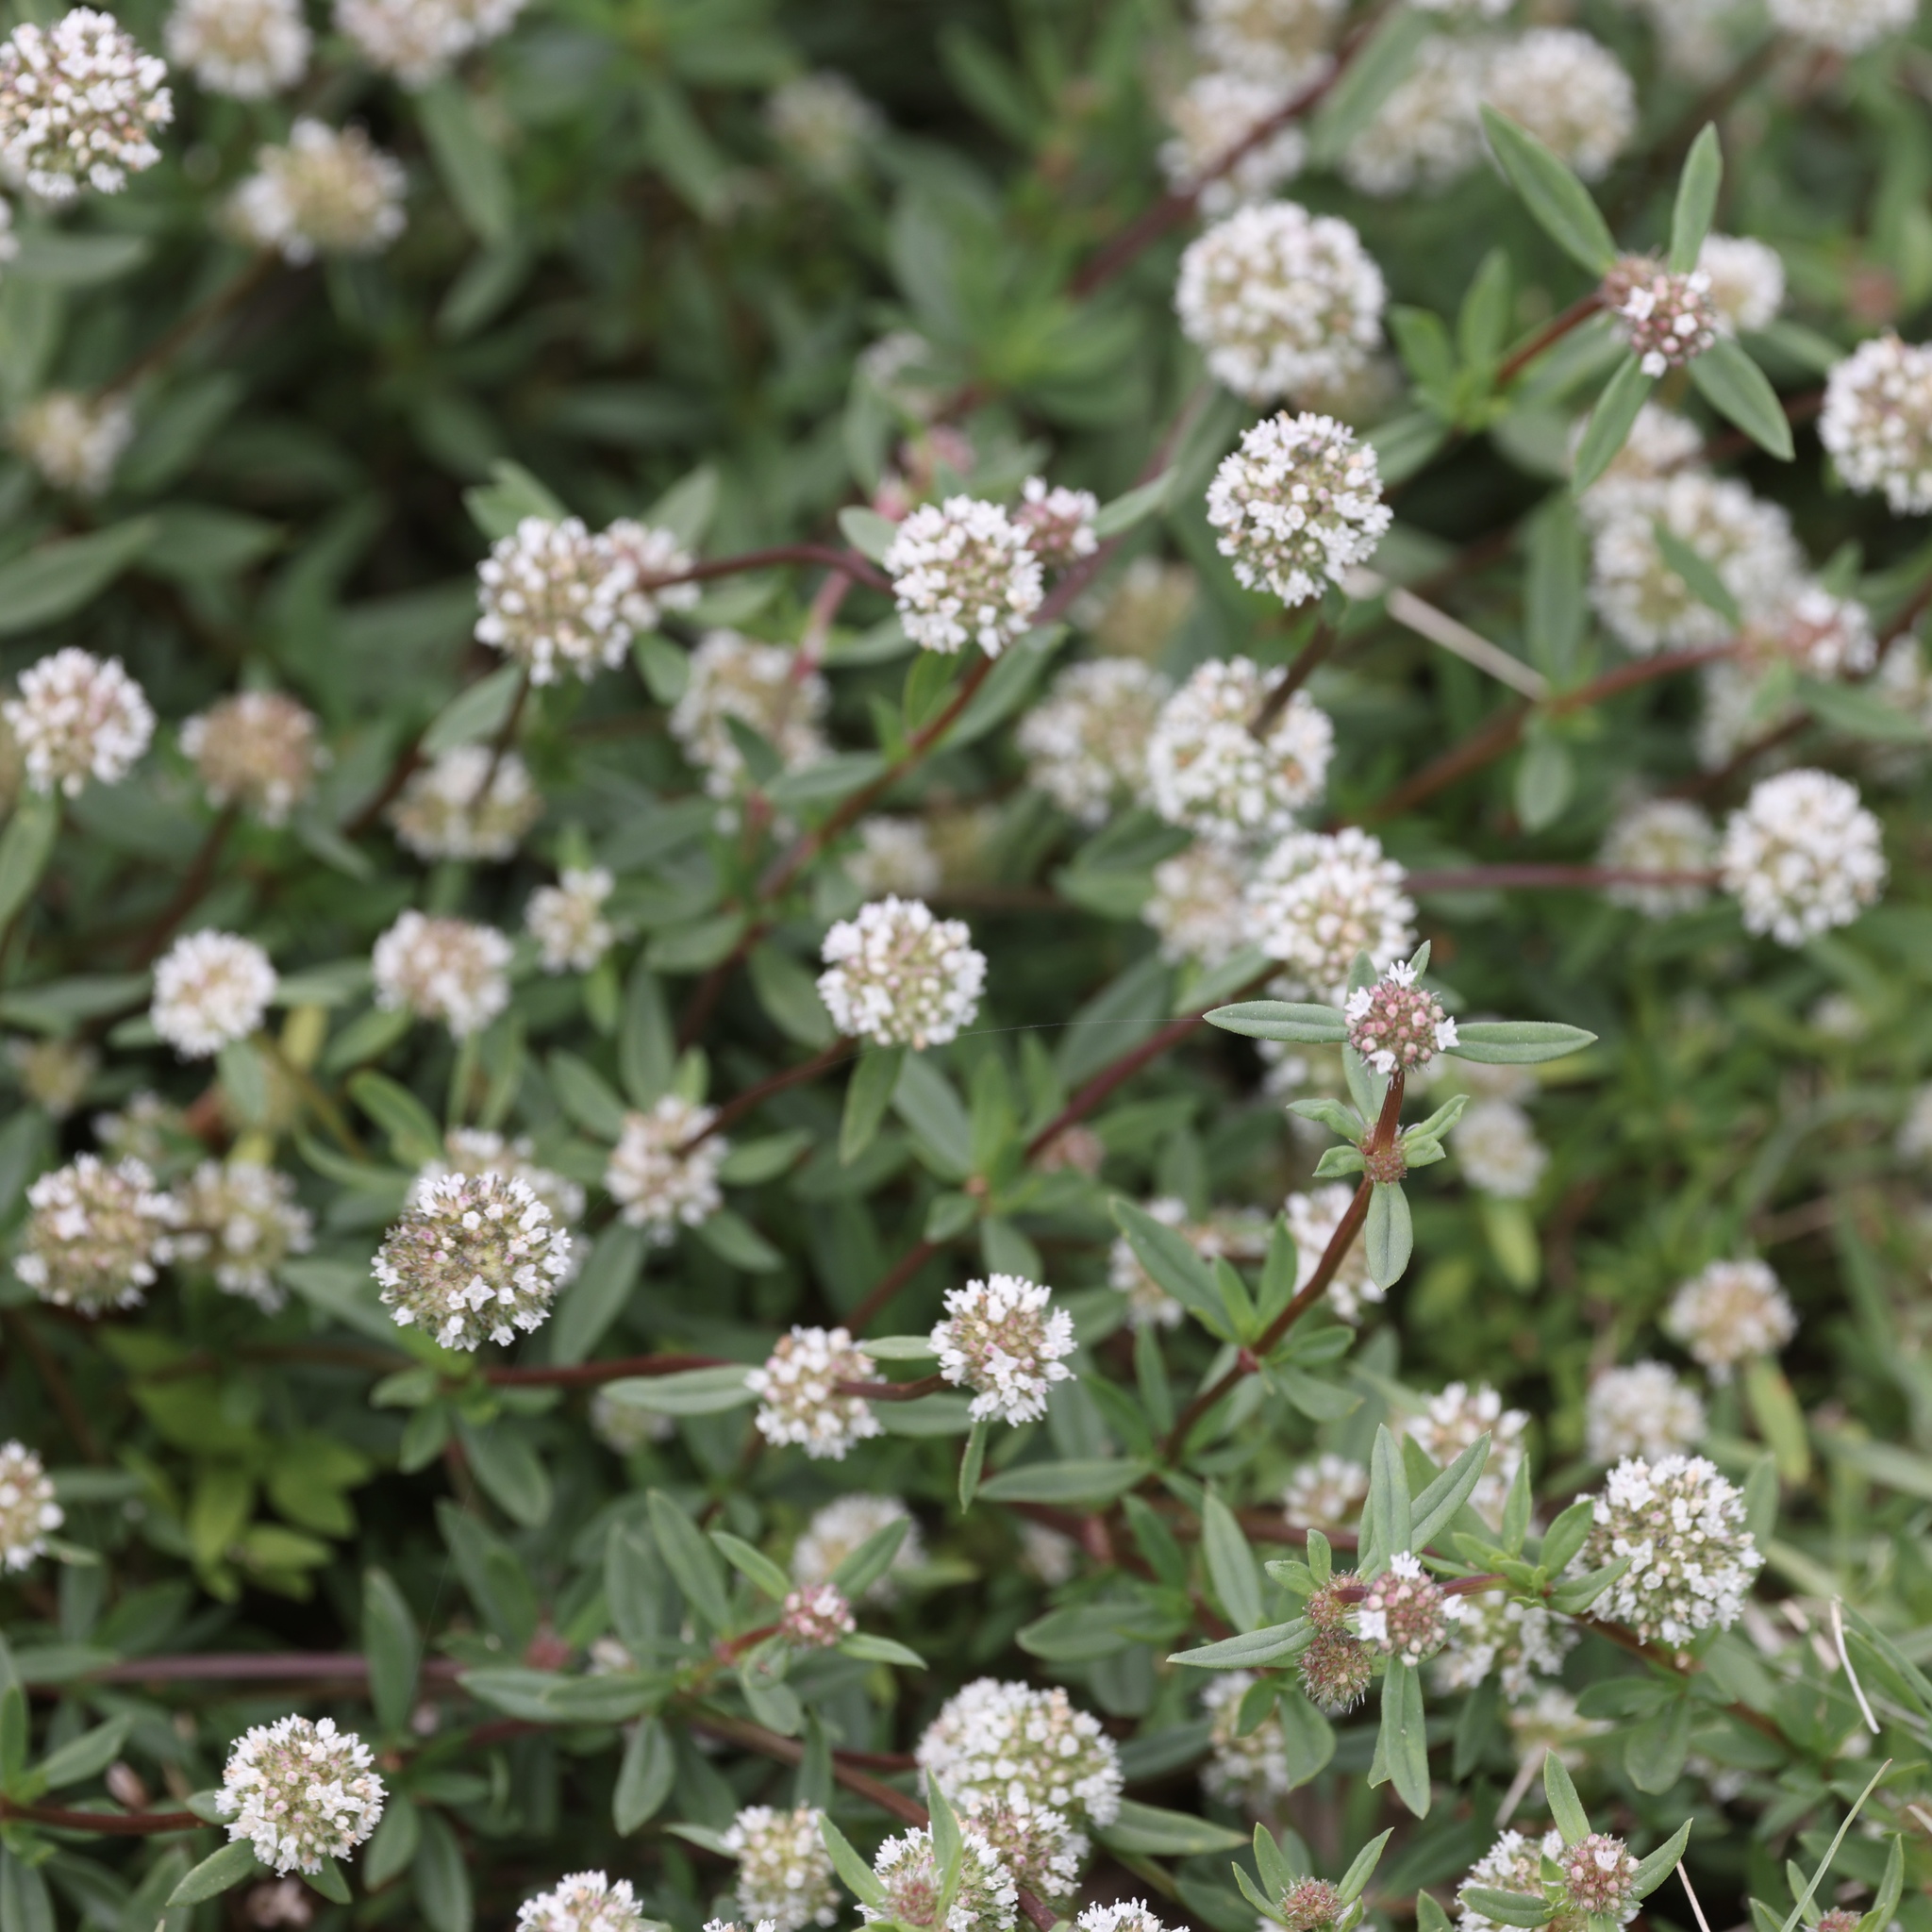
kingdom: Plantae
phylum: Tracheophyta
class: Magnoliopsida
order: Gentianales
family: Rubiaceae
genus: Spermacoce
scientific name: Spermacoce verticillata
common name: Shrubby false buttonweed
